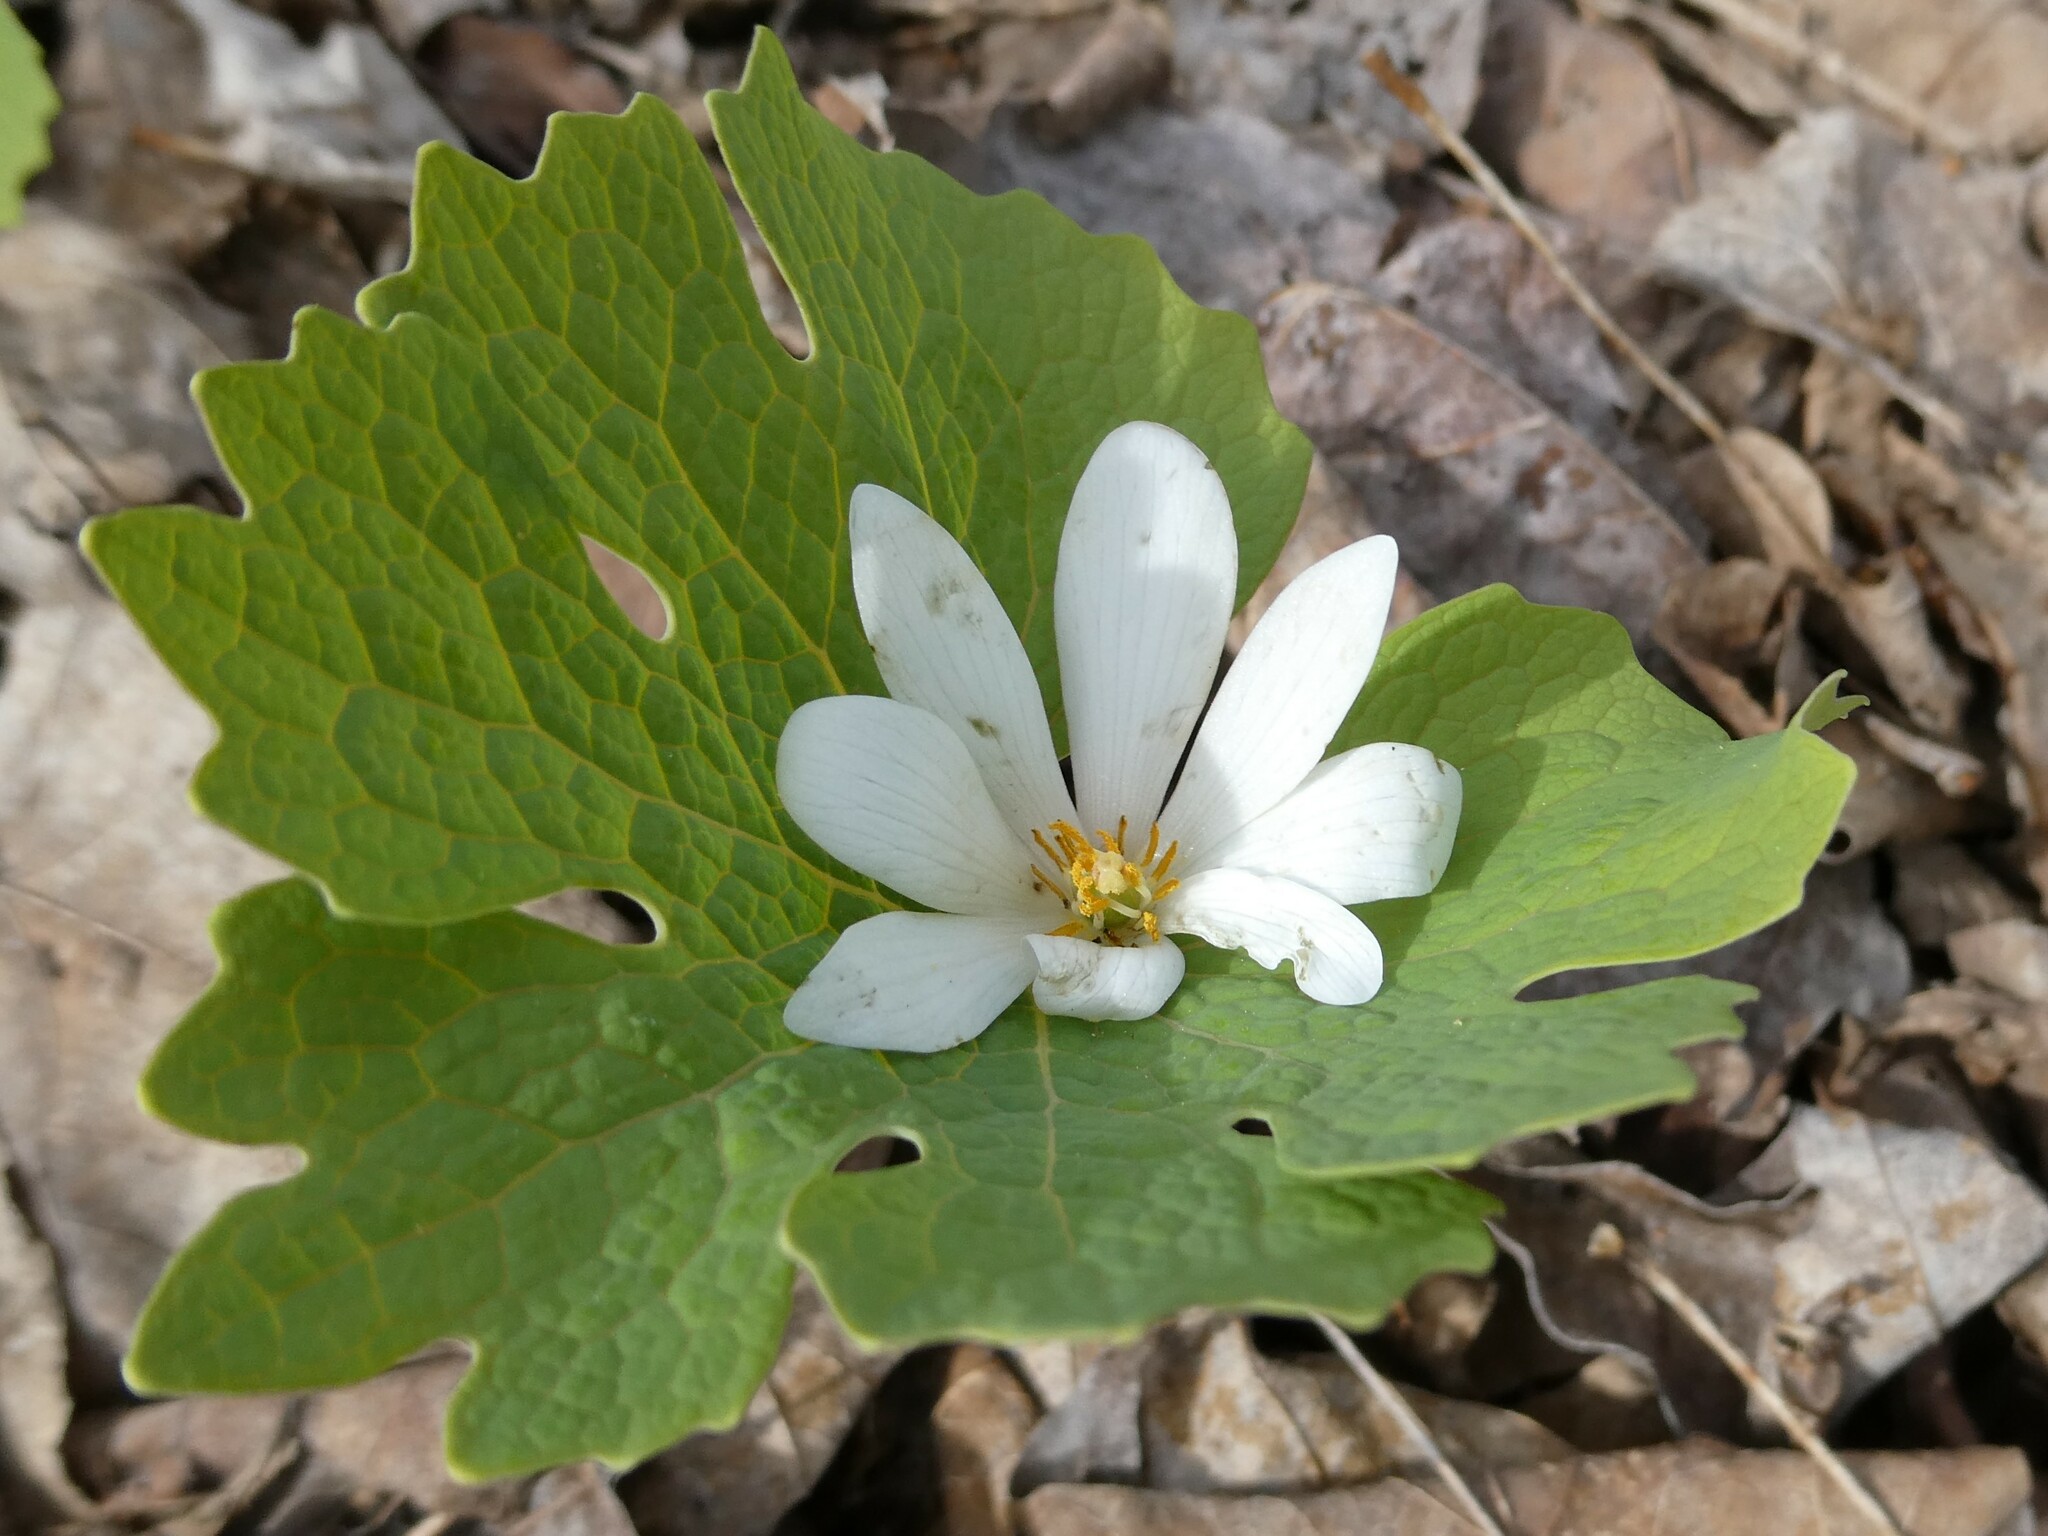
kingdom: Plantae
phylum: Tracheophyta
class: Magnoliopsida
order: Ranunculales
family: Papaveraceae
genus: Sanguinaria
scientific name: Sanguinaria canadensis
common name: Bloodroot
